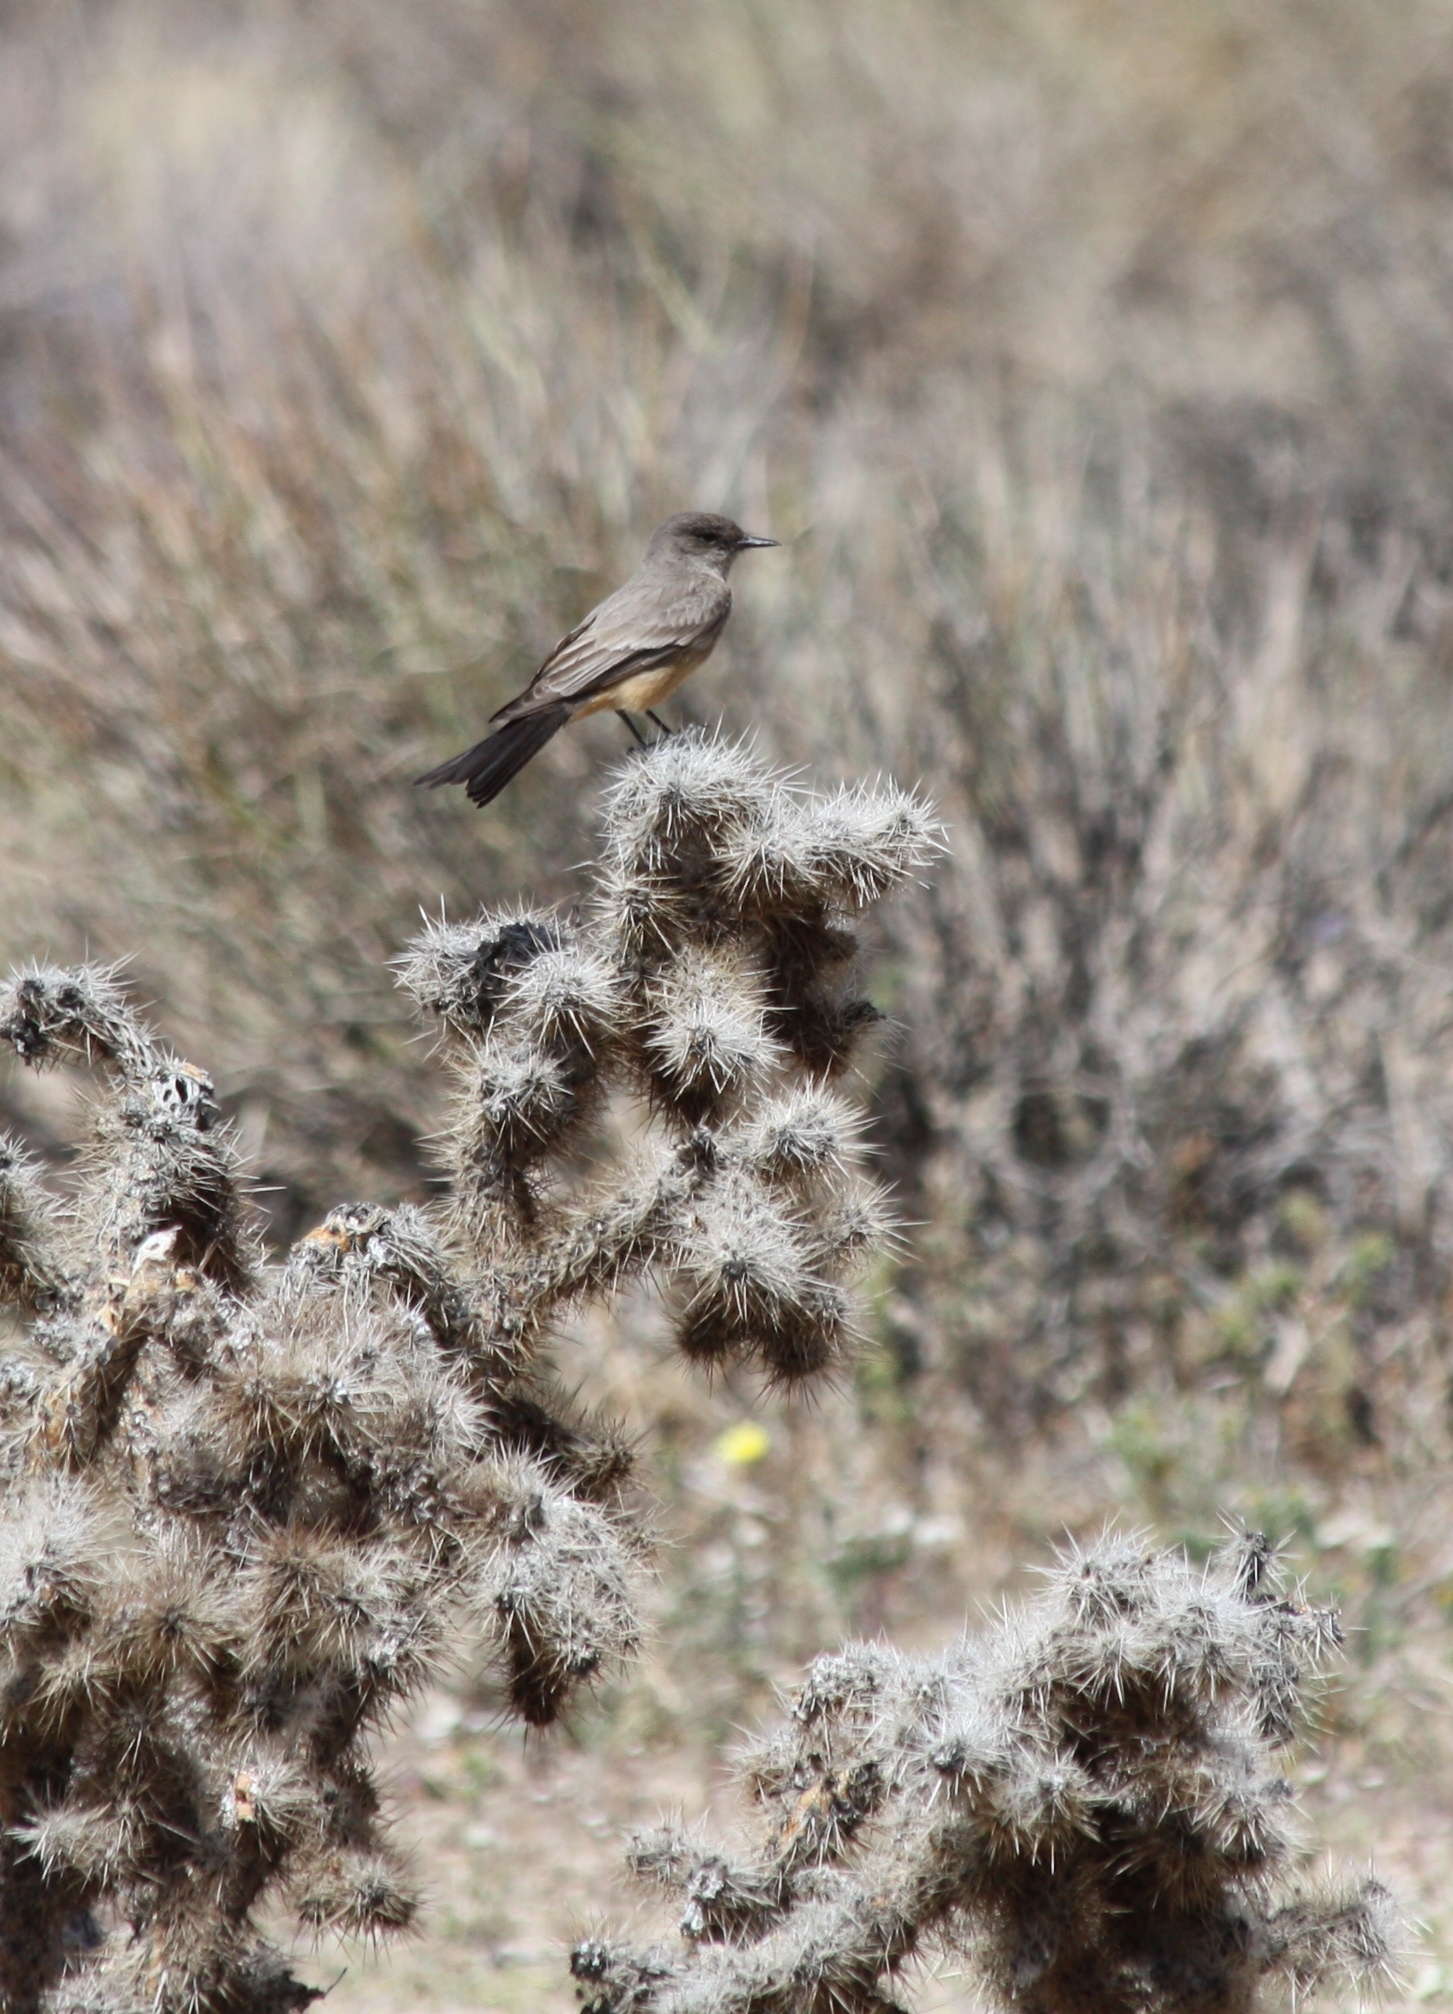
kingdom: Animalia
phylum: Chordata
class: Aves
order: Passeriformes
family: Tyrannidae
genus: Sayornis
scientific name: Sayornis saya
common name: Say's phoebe
